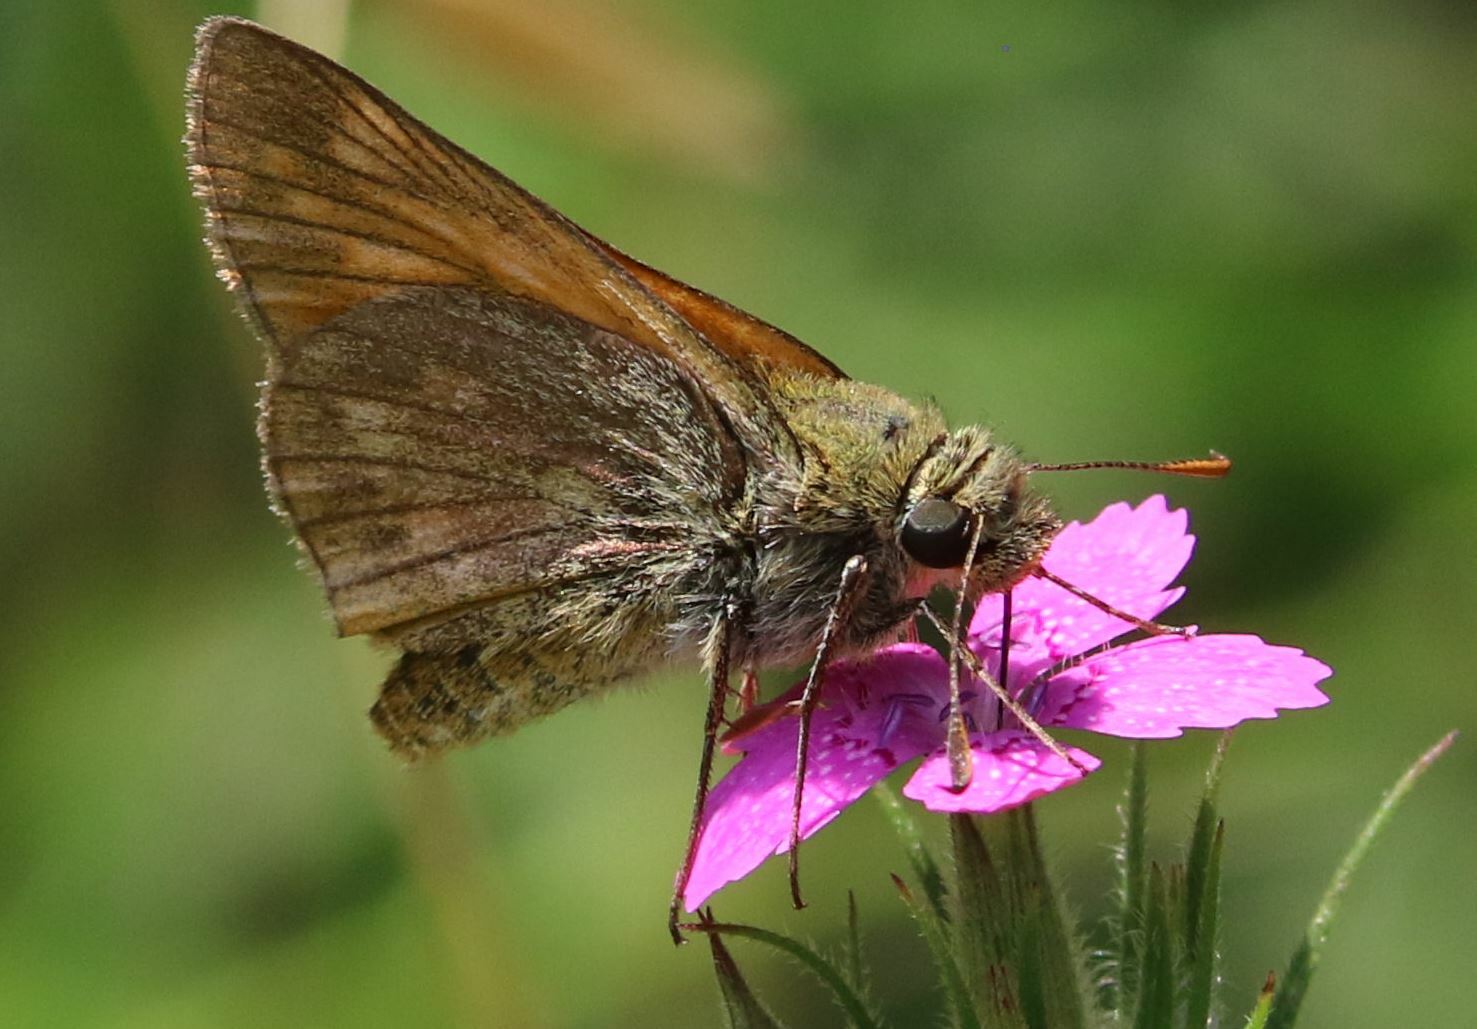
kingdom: Animalia
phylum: Arthropoda
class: Insecta
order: Lepidoptera
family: Hesperiidae
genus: Ochlodes
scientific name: Ochlodes venata
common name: Large skipper
